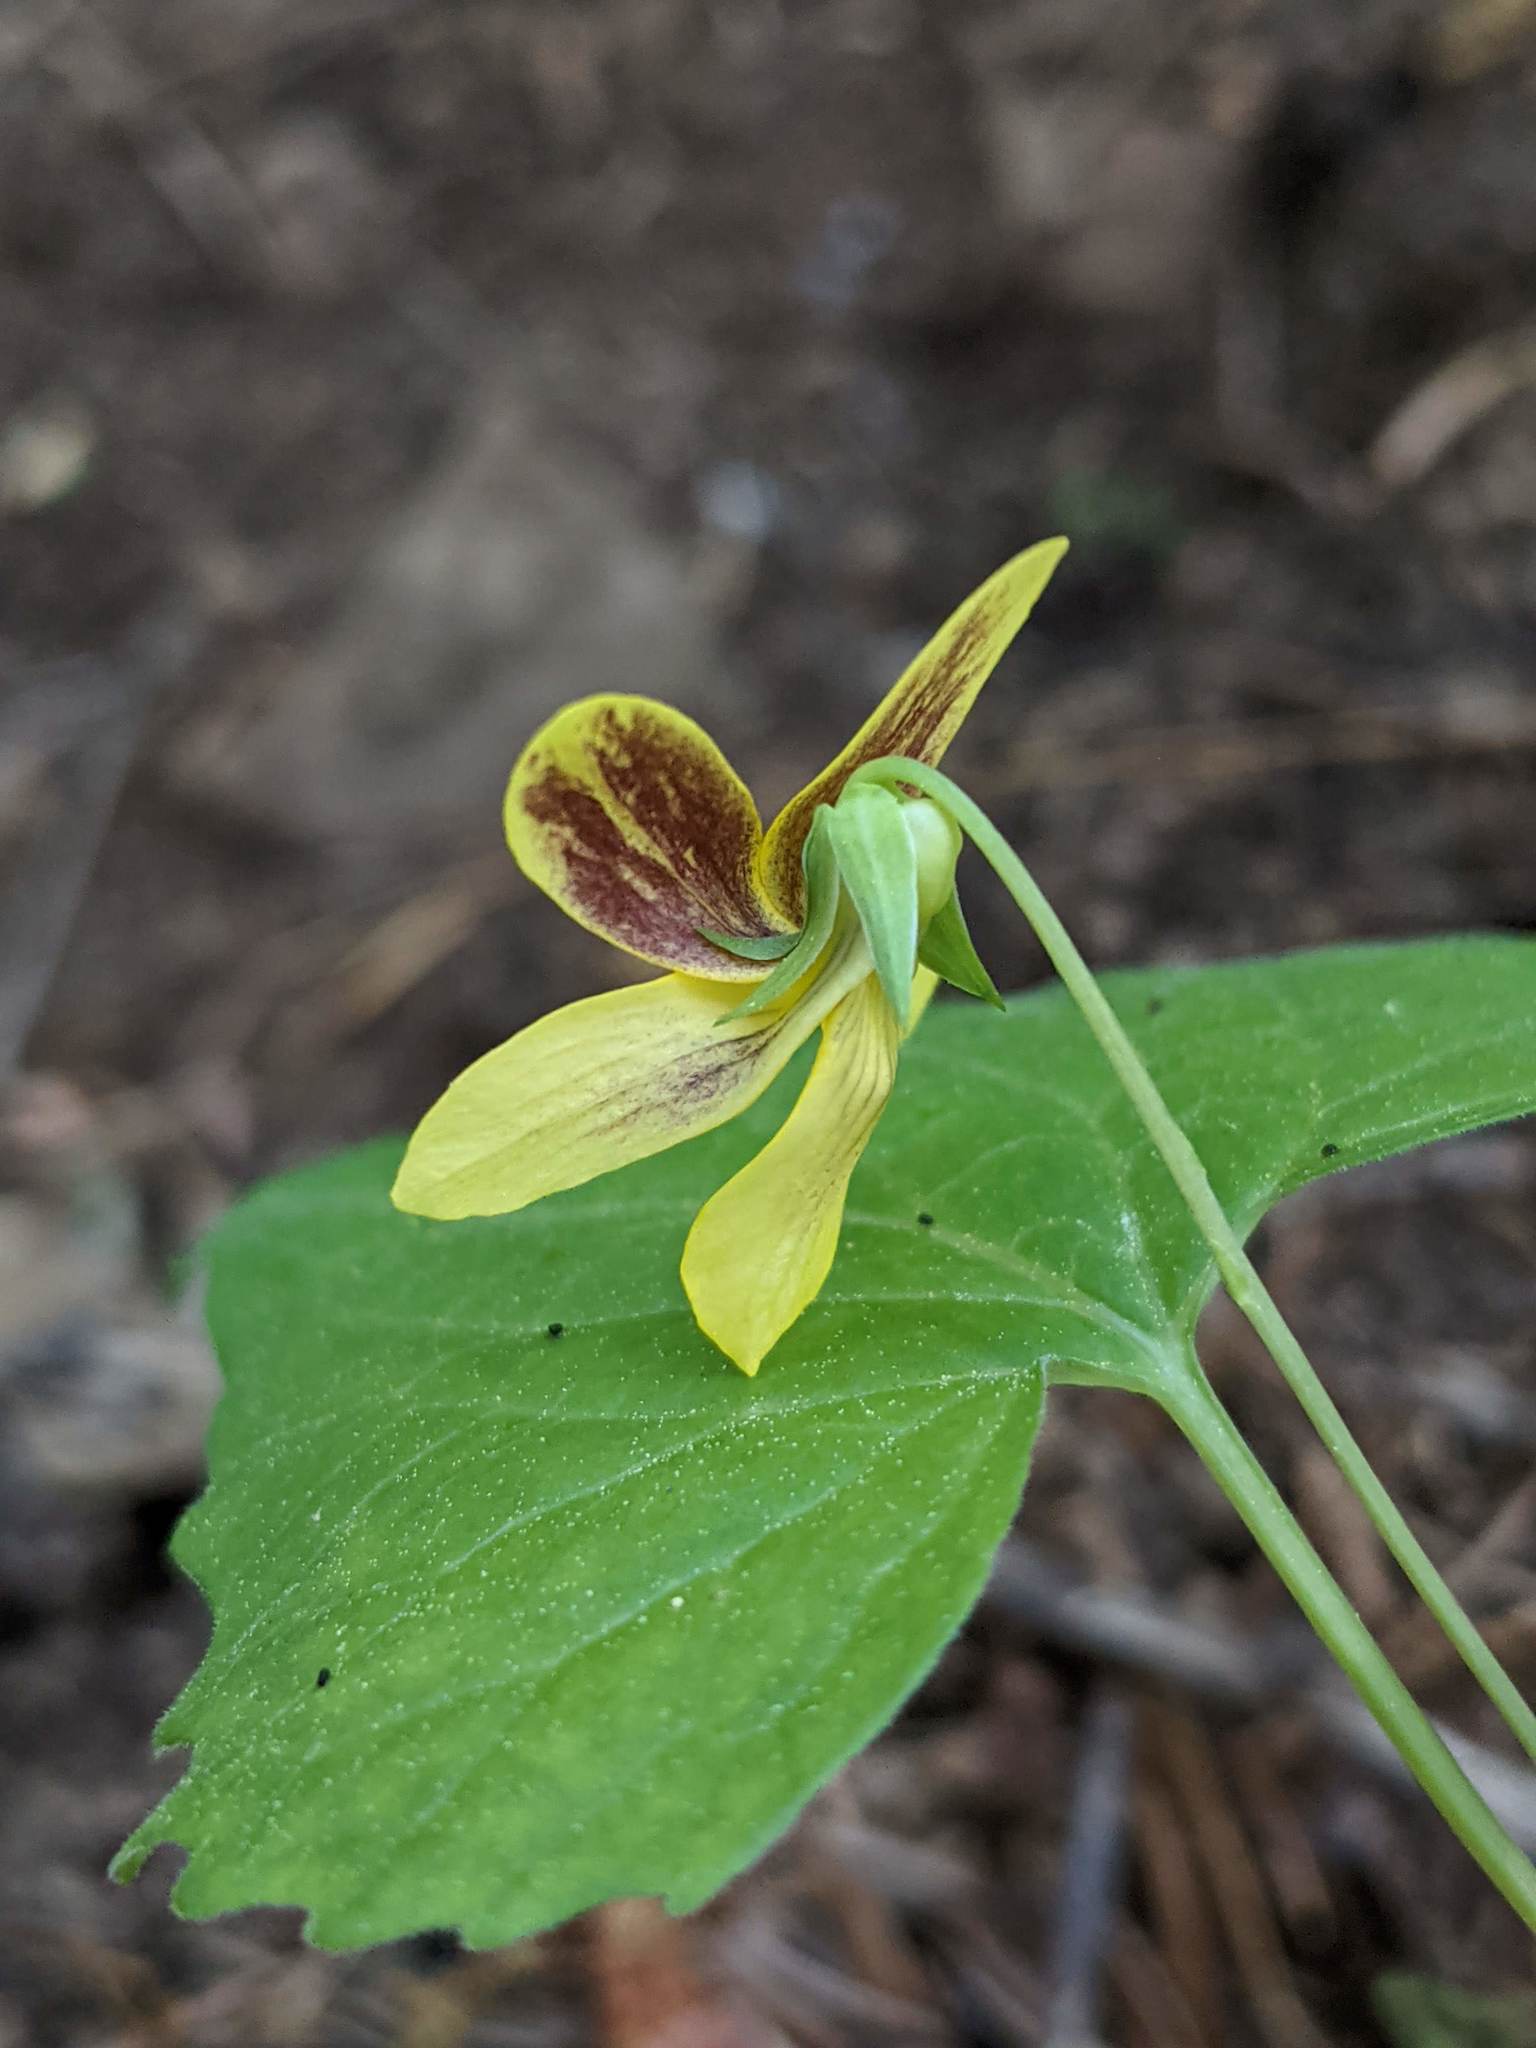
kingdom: Plantae
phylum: Tracheophyta
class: Magnoliopsida
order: Malpighiales
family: Violaceae
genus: Viola
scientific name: Viola lobata
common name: Pine violet
